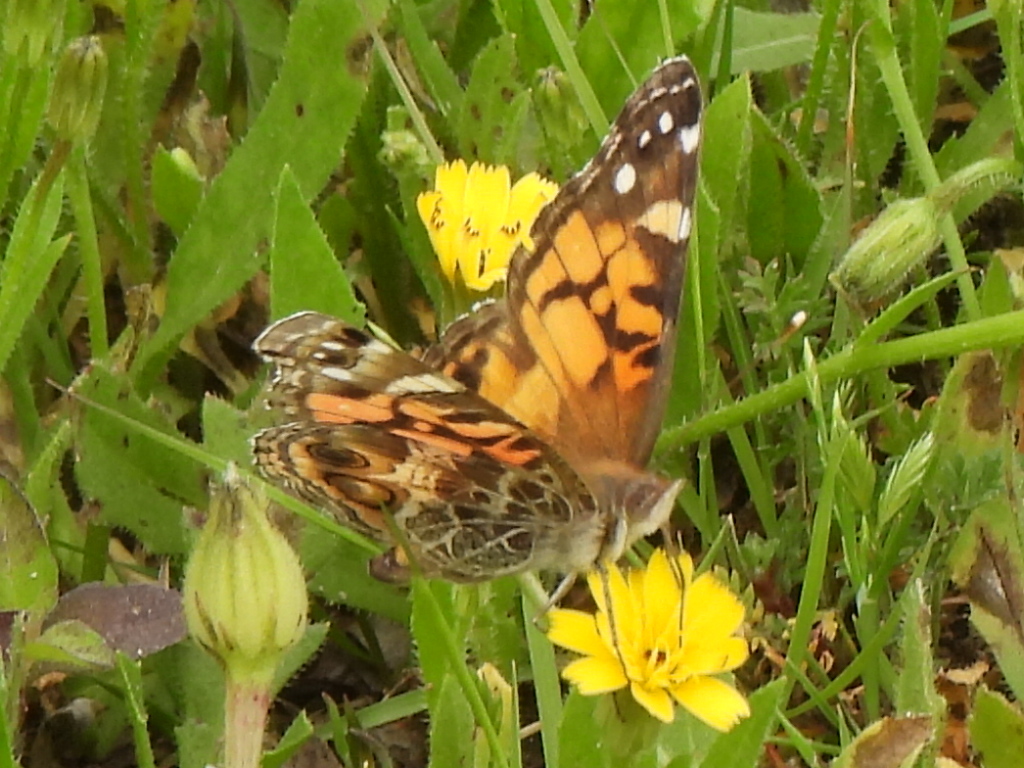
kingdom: Animalia
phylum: Arthropoda
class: Insecta
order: Lepidoptera
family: Nymphalidae
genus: Vanessa
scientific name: Vanessa virginiensis
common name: American lady
